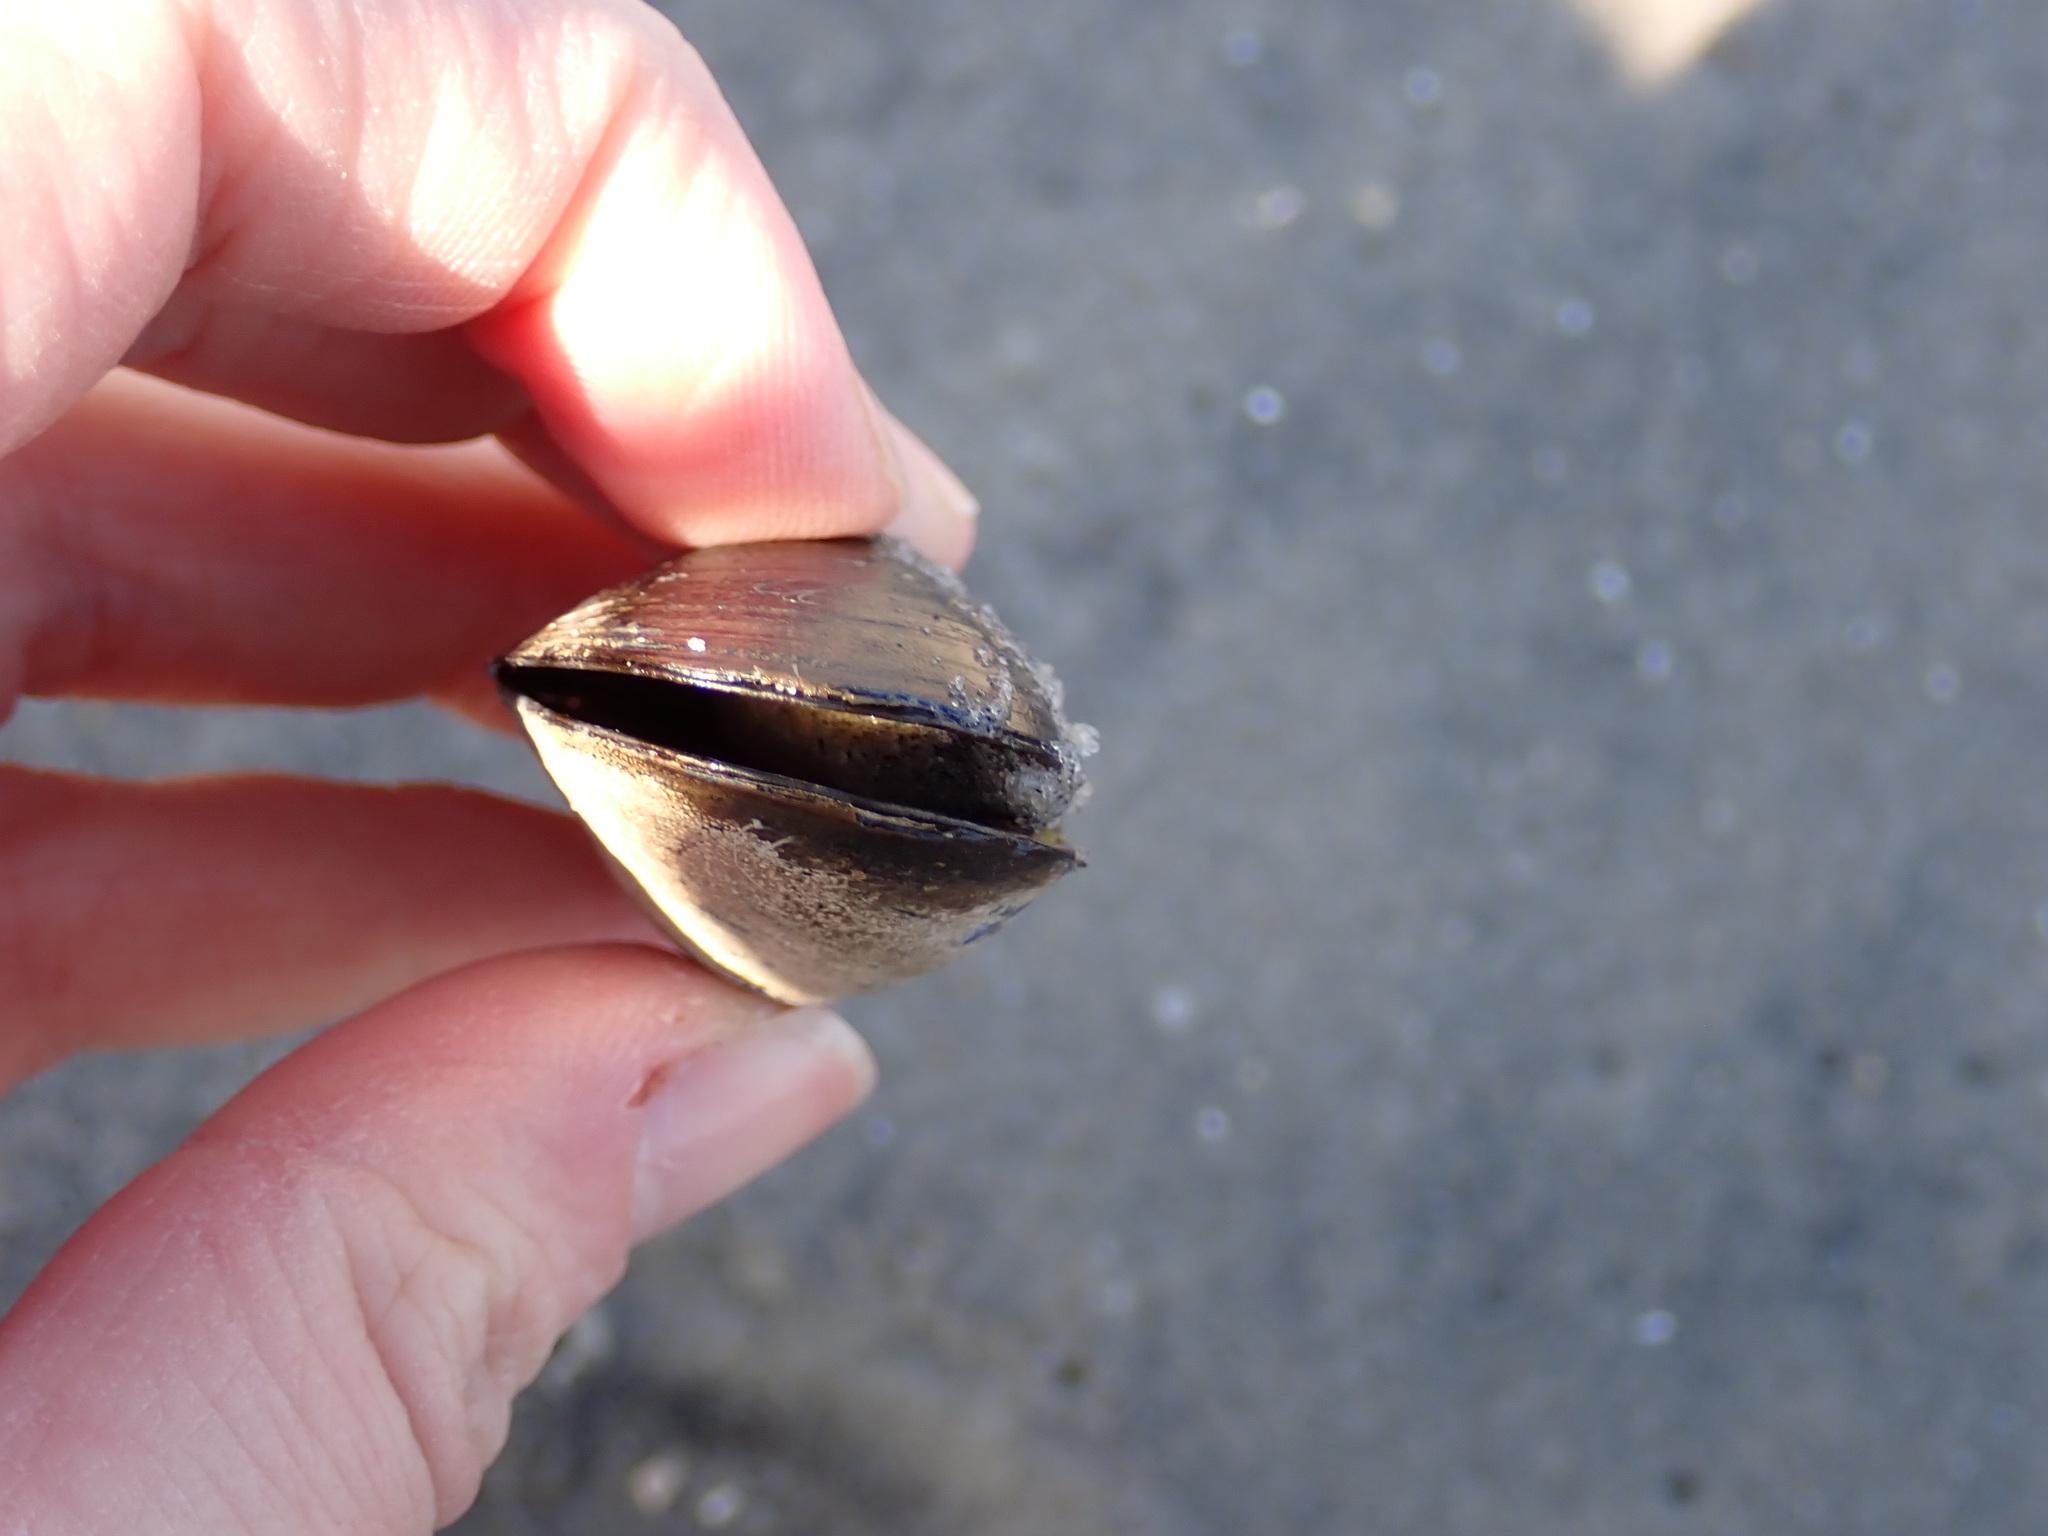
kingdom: Animalia
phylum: Mollusca
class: Bivalvia
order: Mytilida
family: Mytilidae
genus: Mytilus
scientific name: Mytilus edulis
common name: Blue mussel
